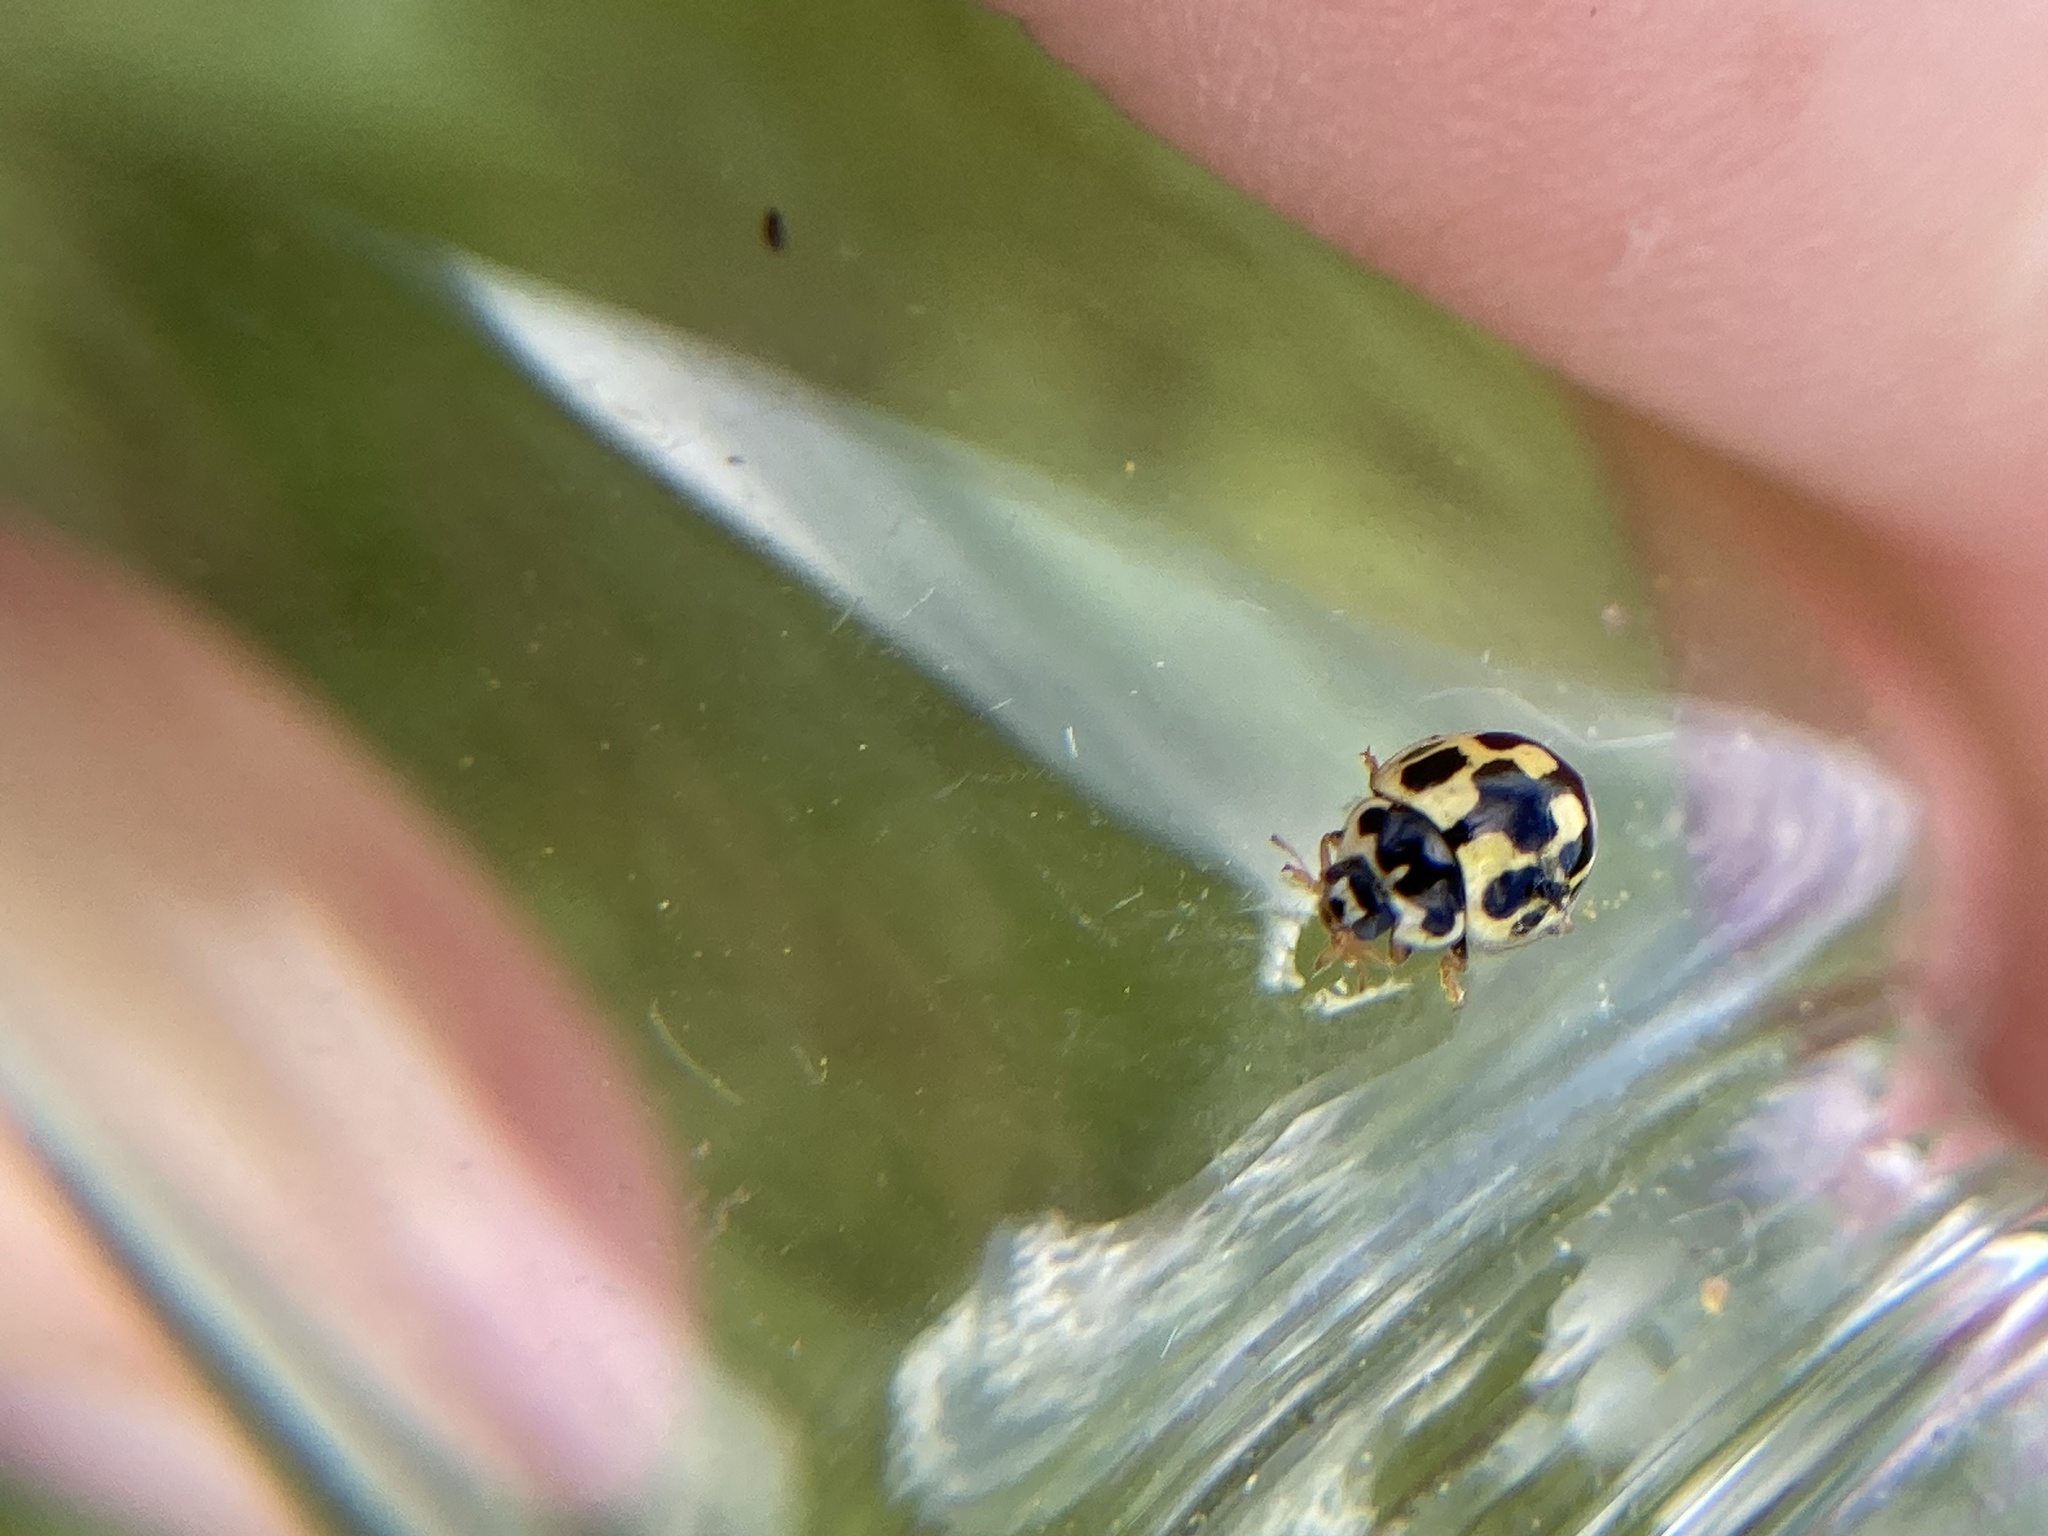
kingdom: Animalia
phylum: Arthropoda
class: Insecta
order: Coleoptera
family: Coccinellidae
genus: Propylaea
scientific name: Propylaea quatuordecimpunctata
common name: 14-spotted ladybird beetle
